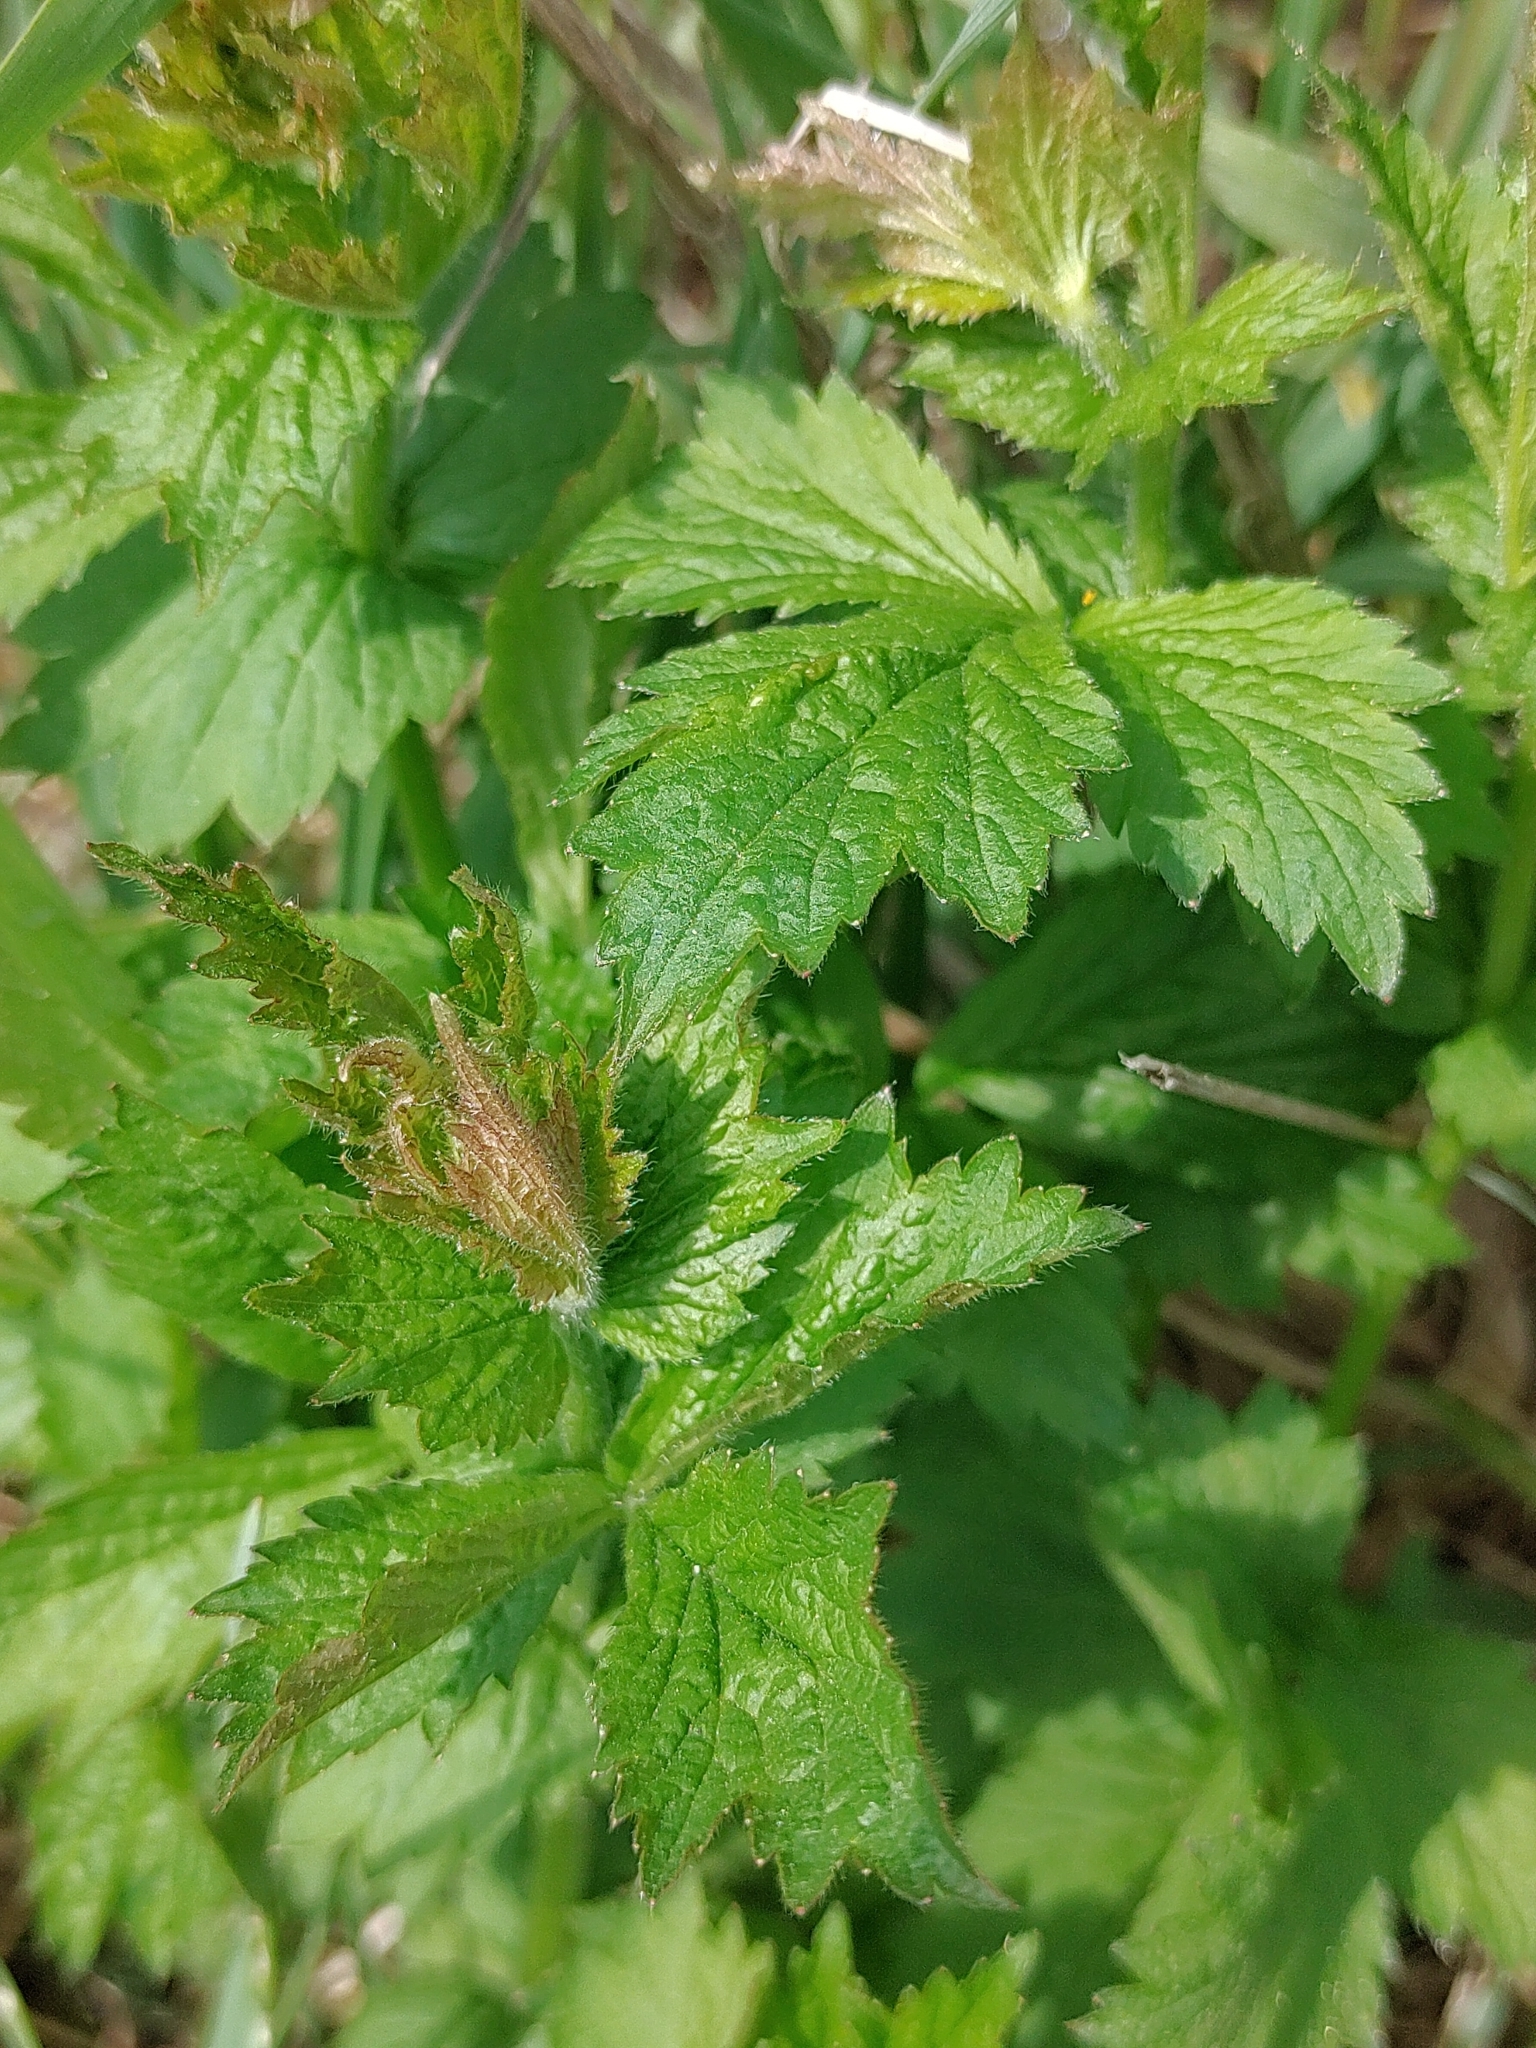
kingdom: Plantae
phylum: Tracheophyta
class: Magnoliopsida
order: Rosales
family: Rosaceae
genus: Geum
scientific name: Geum urbanum
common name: Wood avens
